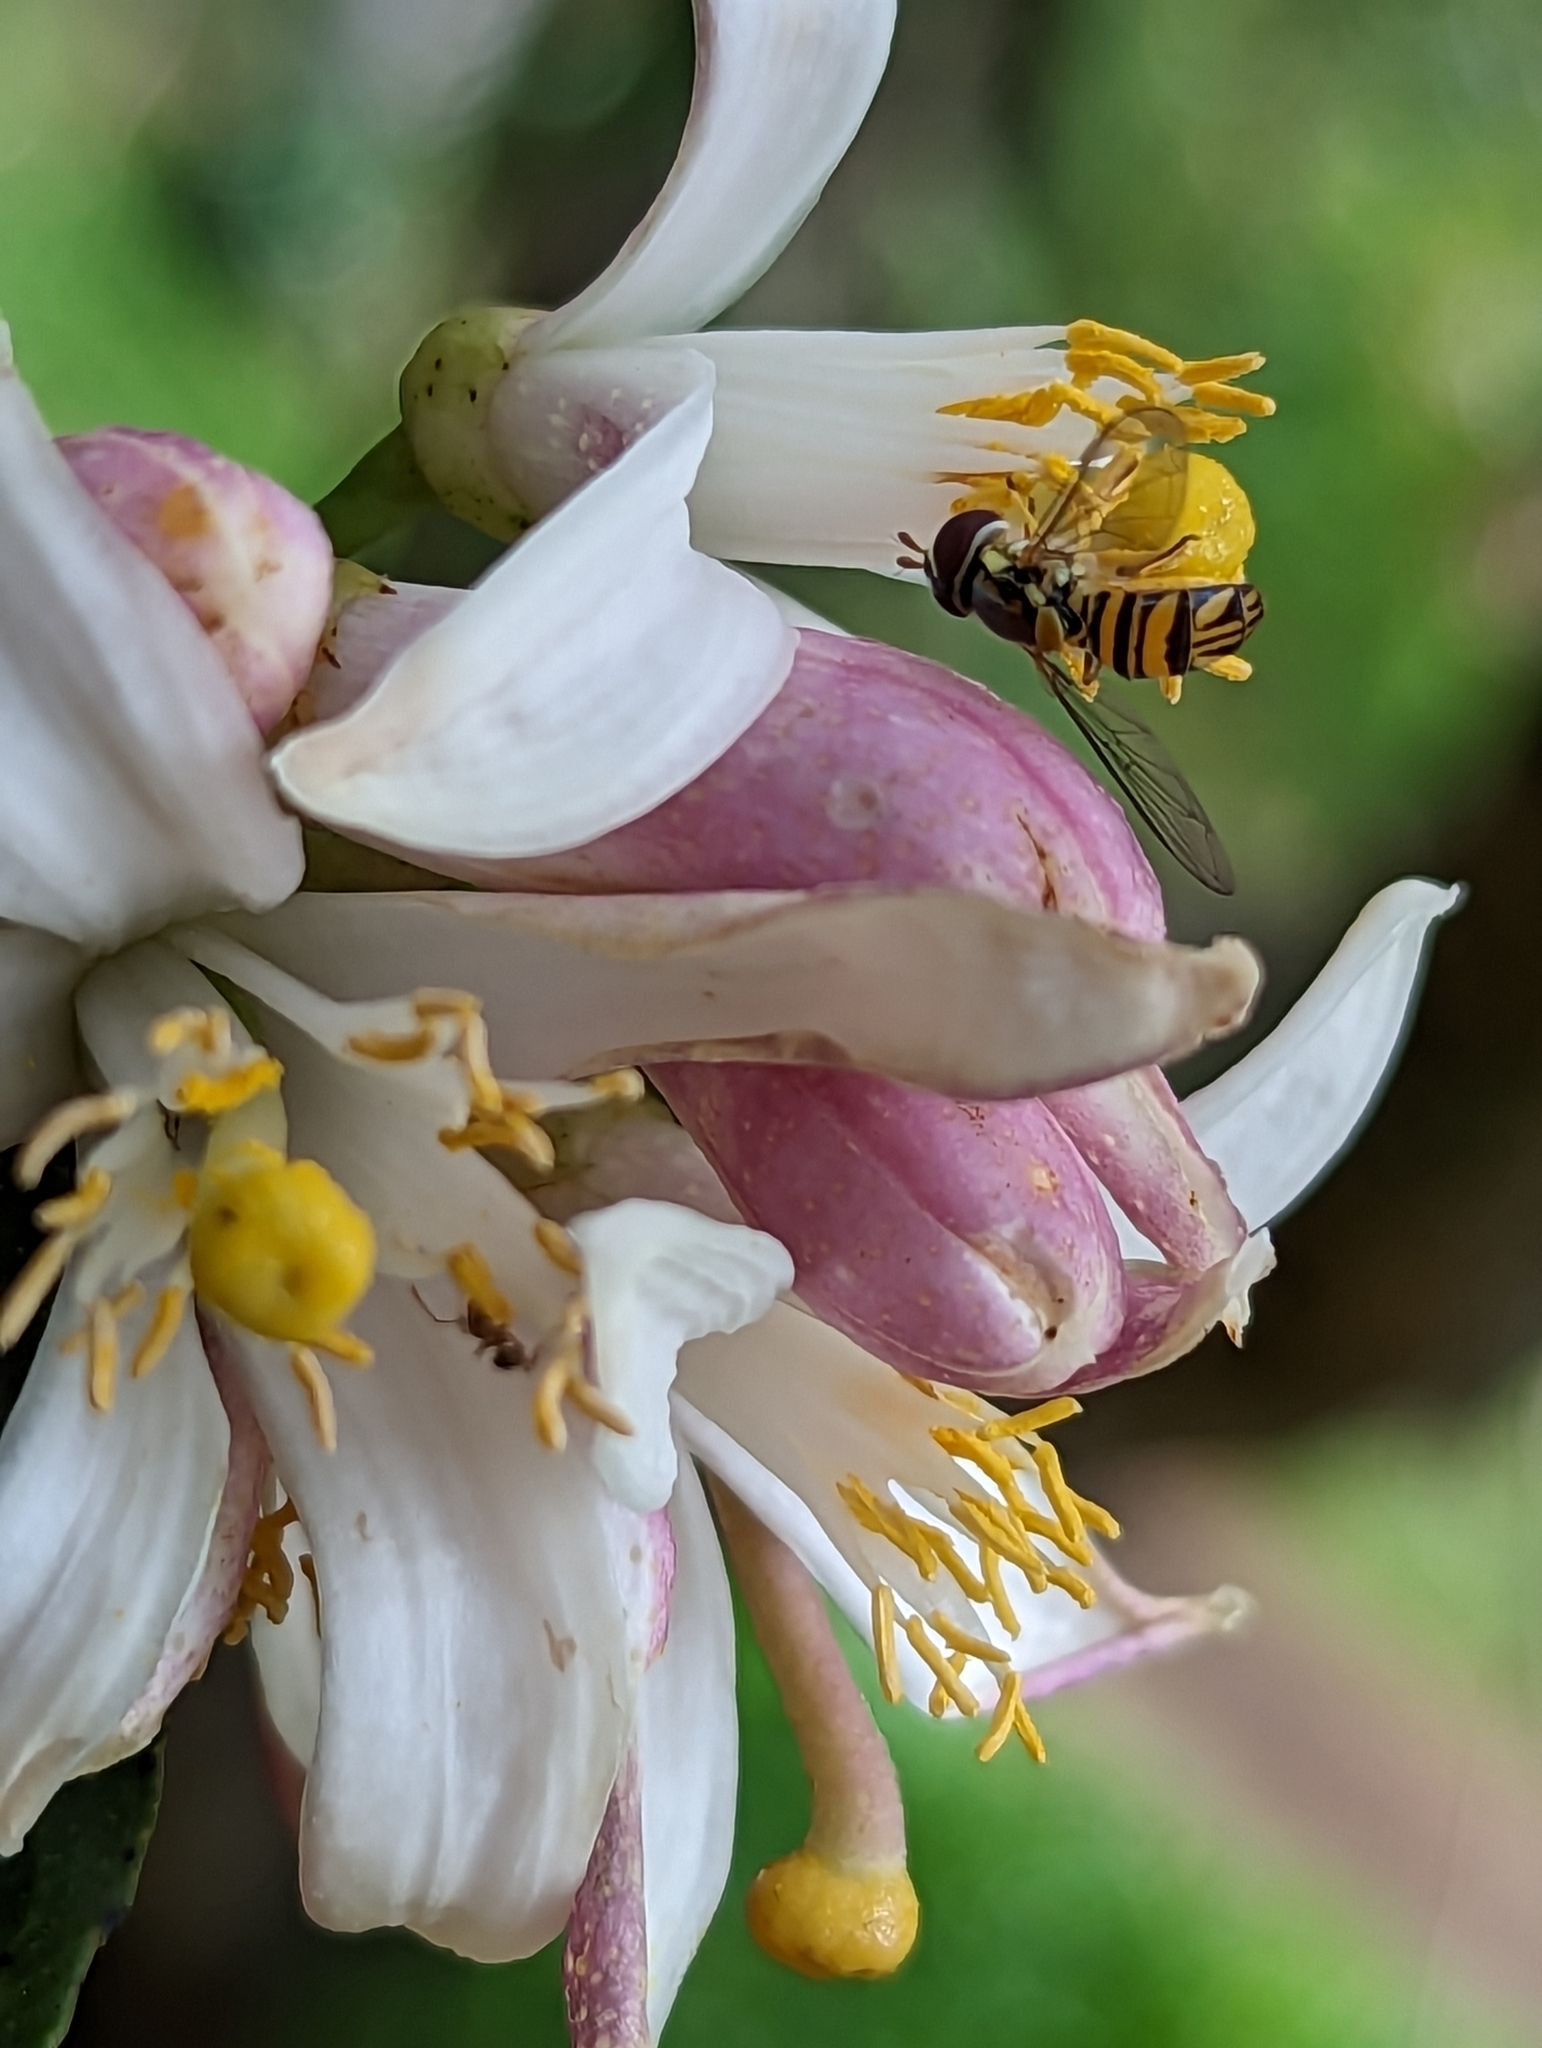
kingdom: Animalia
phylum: Arthropoda
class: Insecta
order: Diptera
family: Syrphidae
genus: Allograpta
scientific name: Allograpta obliqua
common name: Common oblique syrphid
